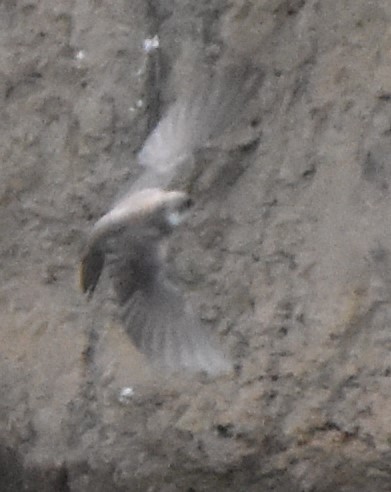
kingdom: Animalia
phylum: Chordata
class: Aves
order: Passeriformes
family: Hirundinidae
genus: Riparia
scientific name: Riparia riparia
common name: Sand martin
